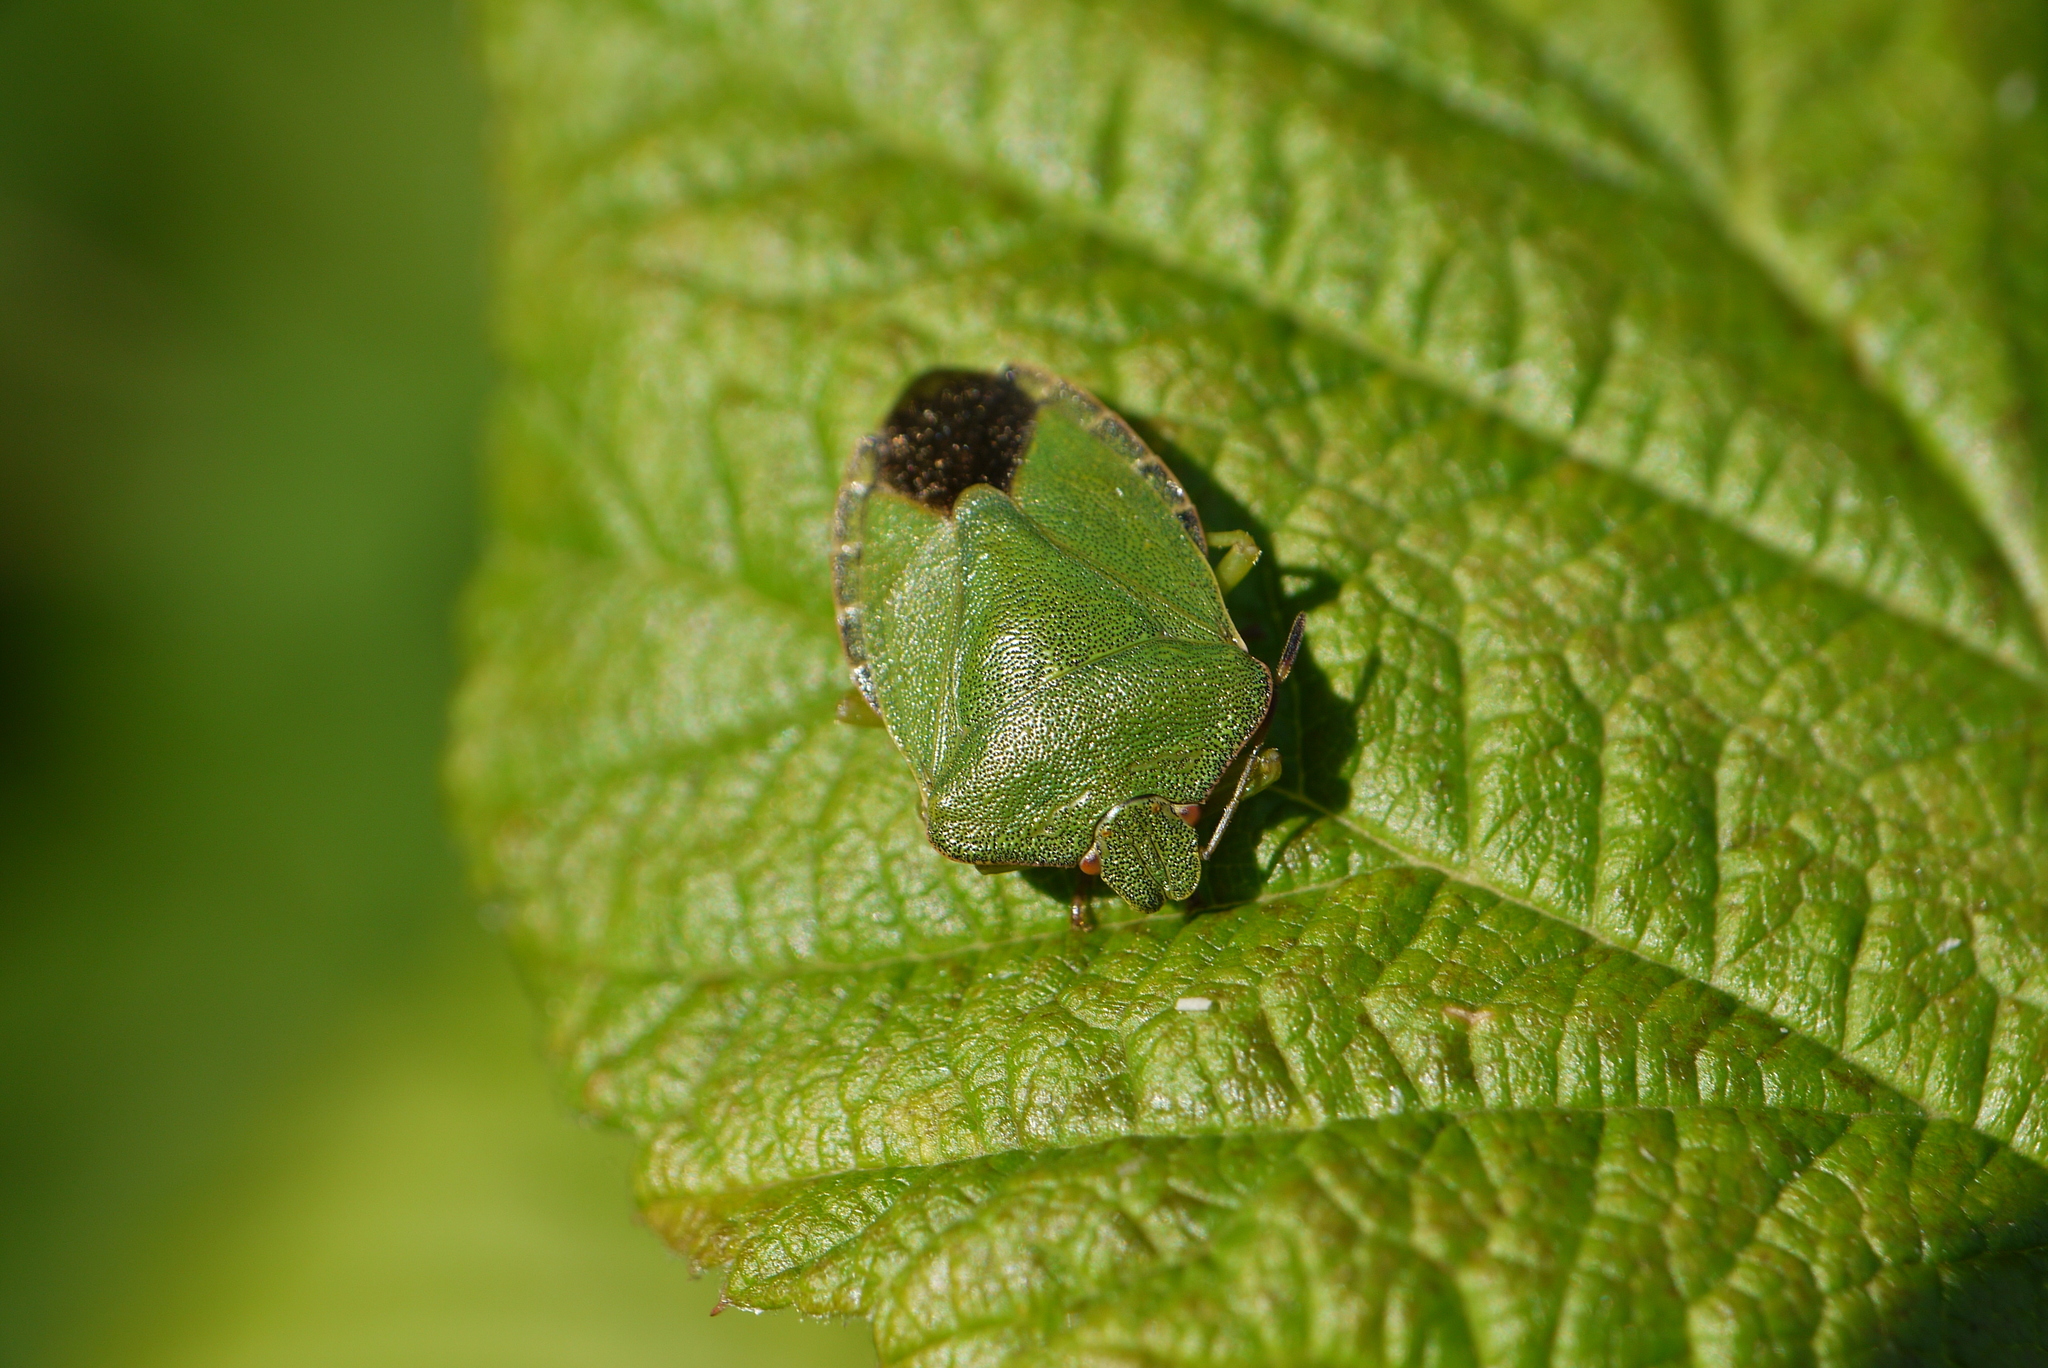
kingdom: Animalia
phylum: Arthropoda
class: Insecta
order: Hemiptera
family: Pentatomidae
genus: Palomena
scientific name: Palomena prasina
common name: Green shieldbug
